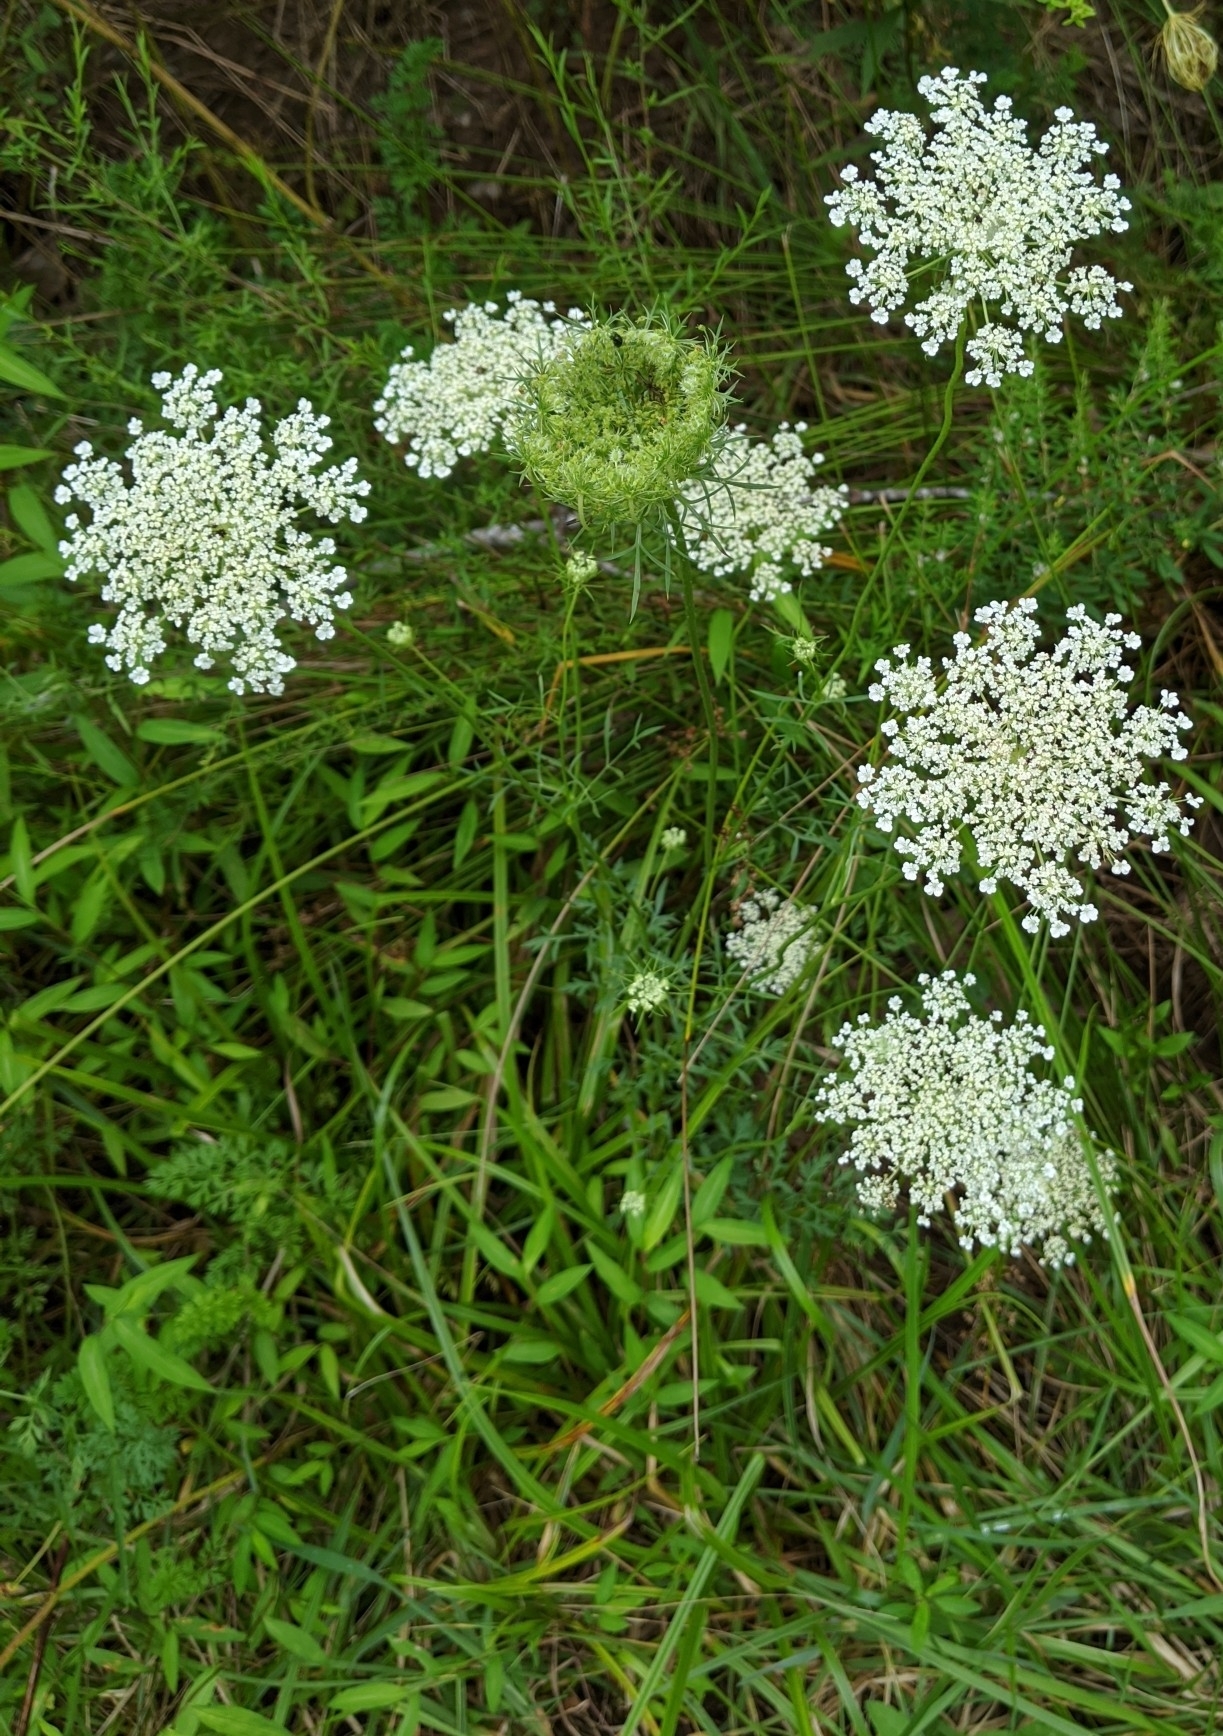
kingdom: Plantae
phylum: Tracheophyta
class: Magnoliopsida
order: Apiales
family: Apiaceae
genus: Daucus
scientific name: Daucus carota
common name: Wild carrot
